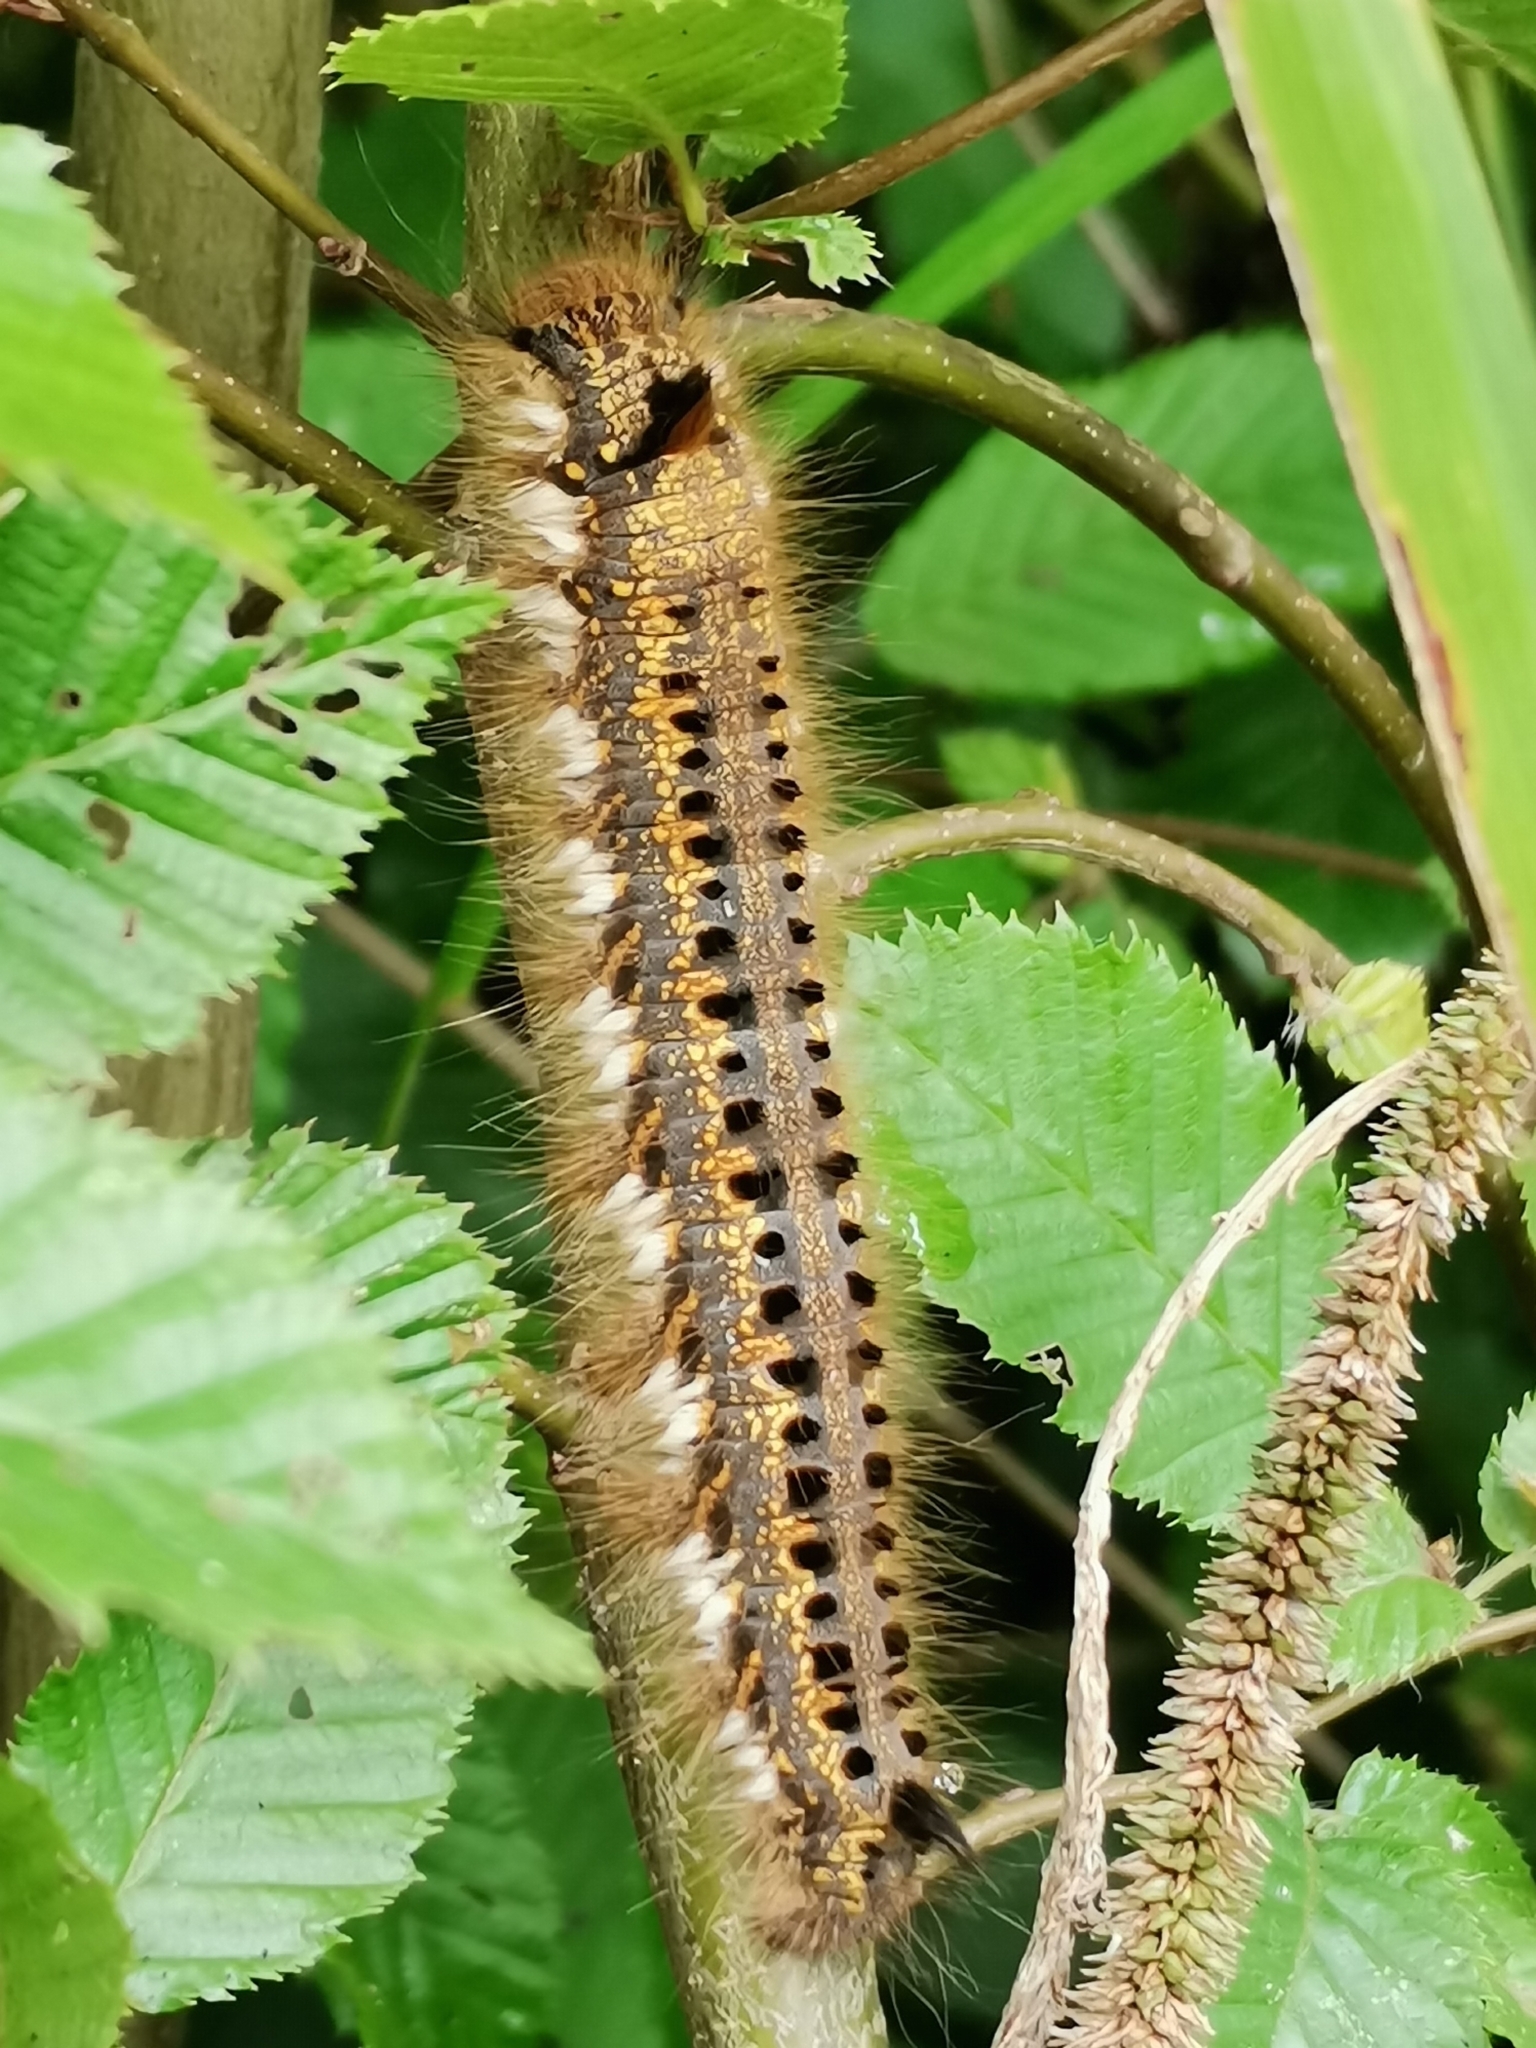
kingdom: Animalia
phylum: Arthropoda
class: Insecta
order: Lepidoptera
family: Lasiocampidae
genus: Euthrix
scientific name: Euthrix potatoria
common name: Drinker
